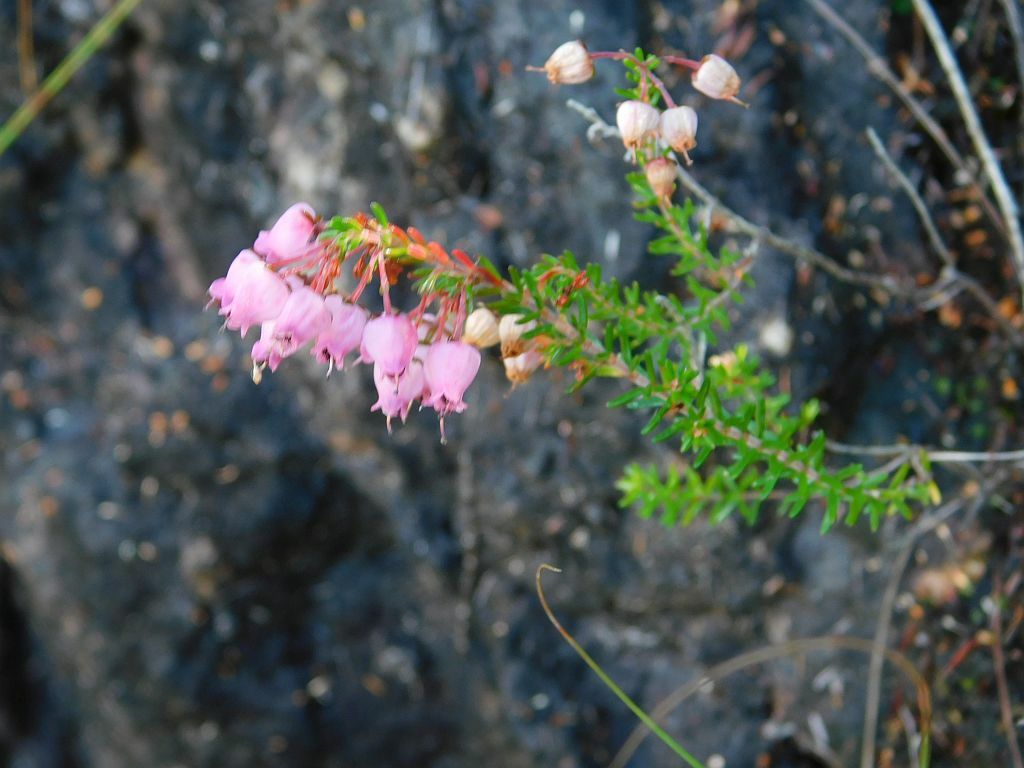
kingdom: Plantae
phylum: Tracheophyta
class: Magnoliopsida
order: Ericales
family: Ericaceae
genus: Erica
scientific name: Erica gracilis
